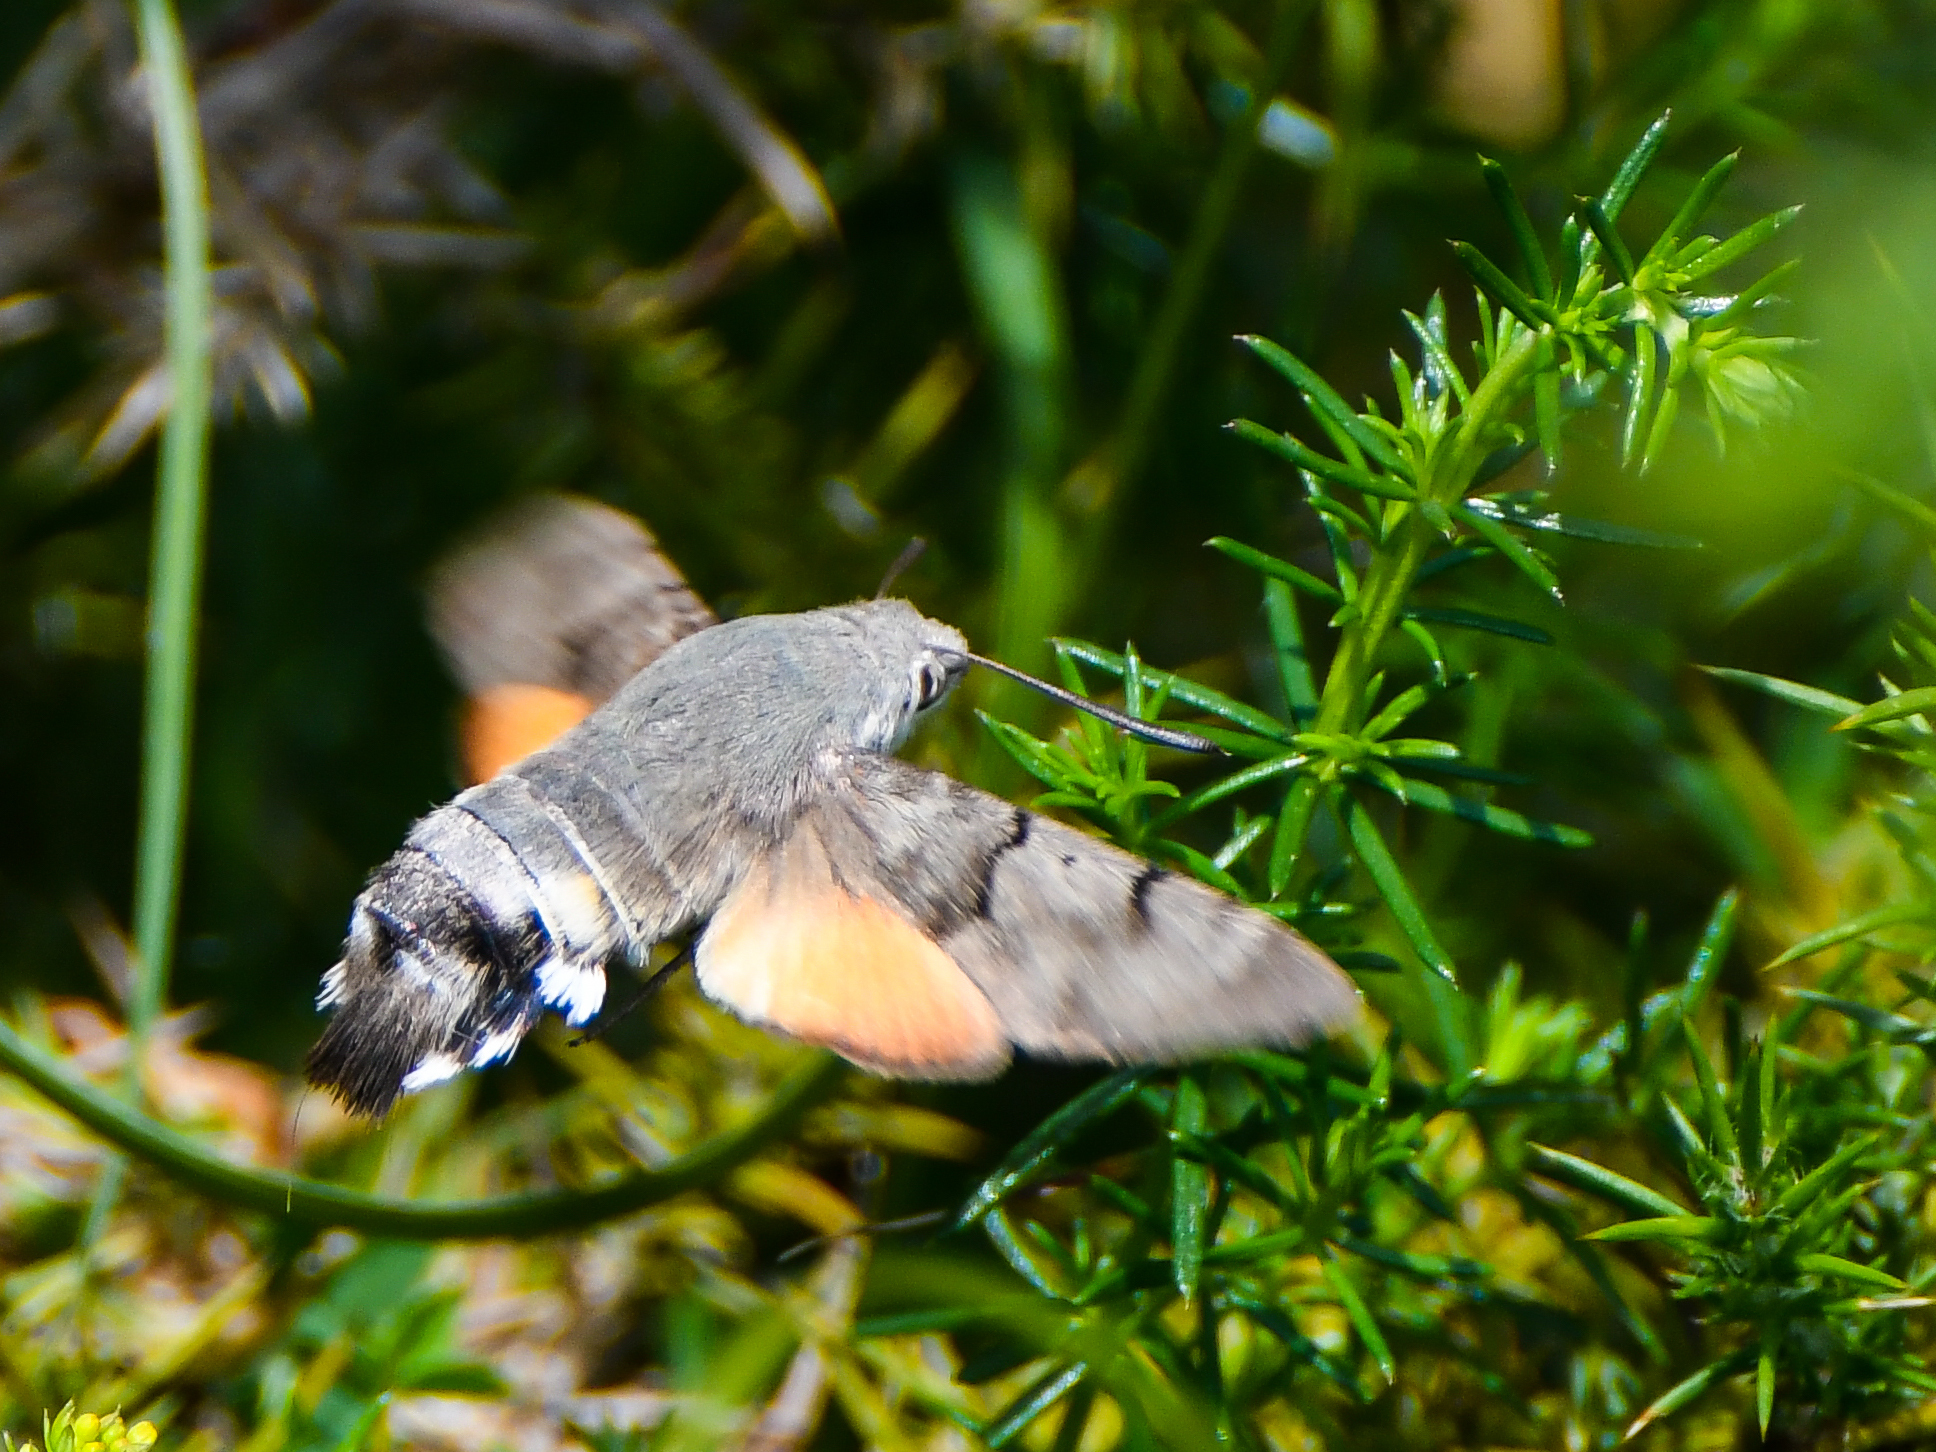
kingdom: Animalia
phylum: Arthropoda
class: Insecta
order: Lepidoptera
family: Sphingidae
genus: Macroglossum
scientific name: Macroglossum stellatarum
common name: Humming-bird hawk-moth
